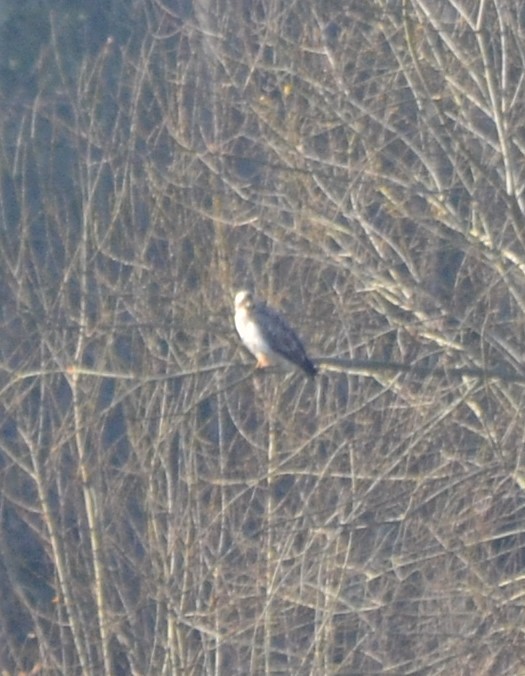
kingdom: Animalia
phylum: Chordata
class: Aves
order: Accipitriformes
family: Accipitridae
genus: Buteo
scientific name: Buteo buteo
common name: Common buzzard
